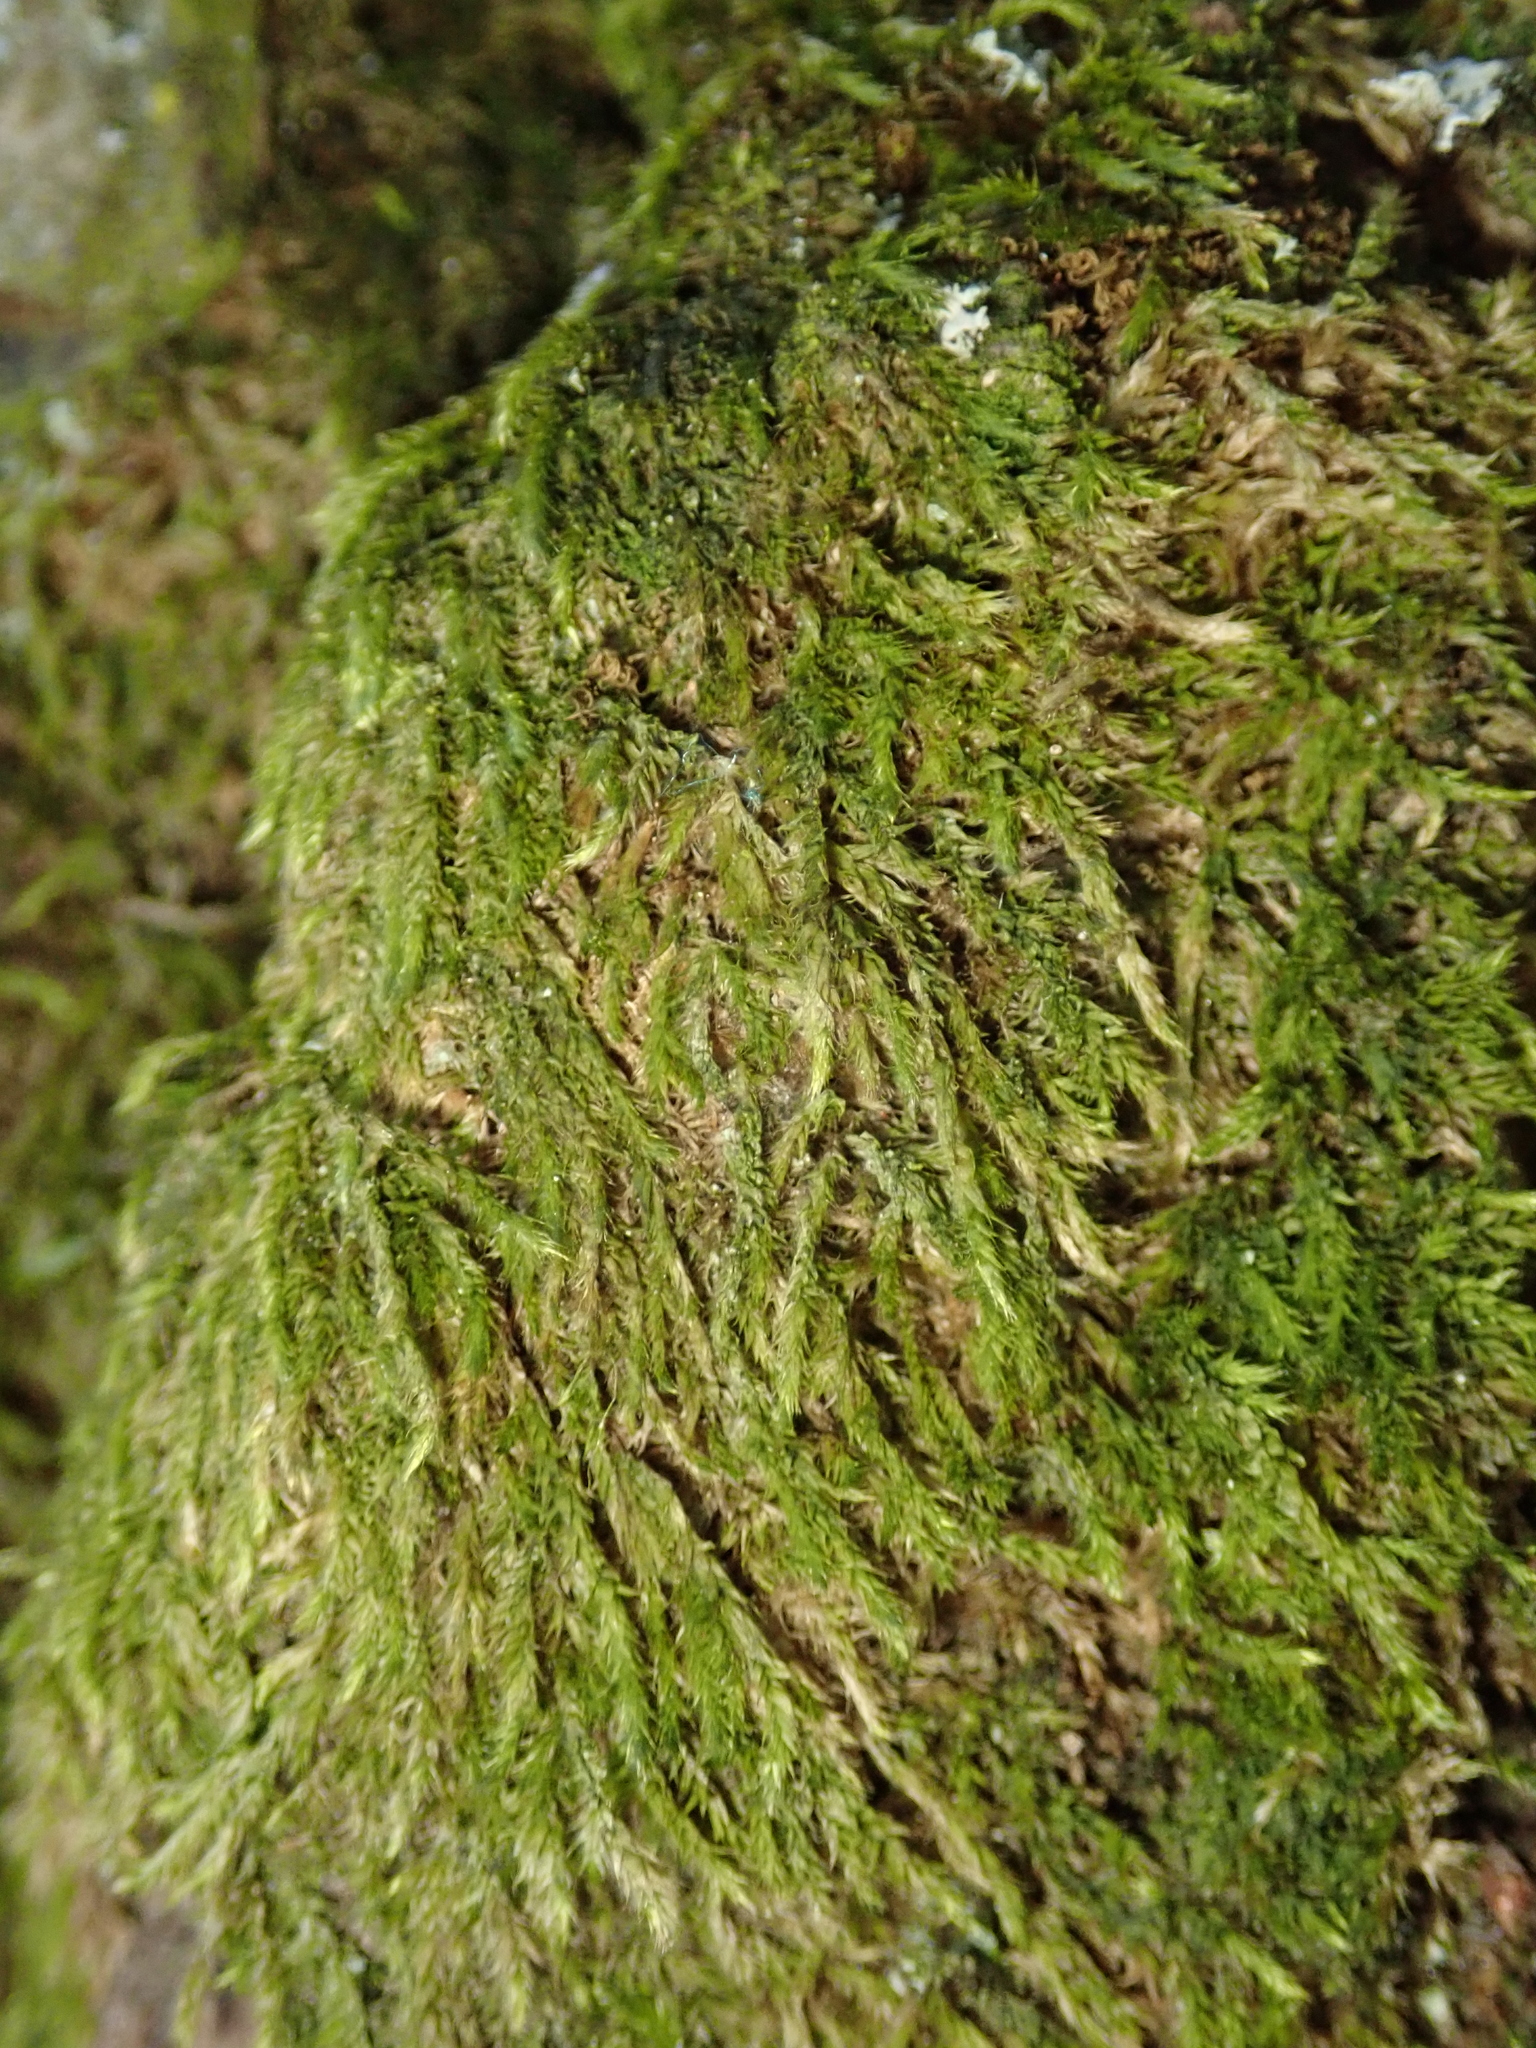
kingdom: Plantae
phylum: Bryophyta
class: Bryopsida
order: Hypnales
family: Hypnaceae
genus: Hypnum
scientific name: Hypnum cupressiforme
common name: Cypress-leaved plait-moss
